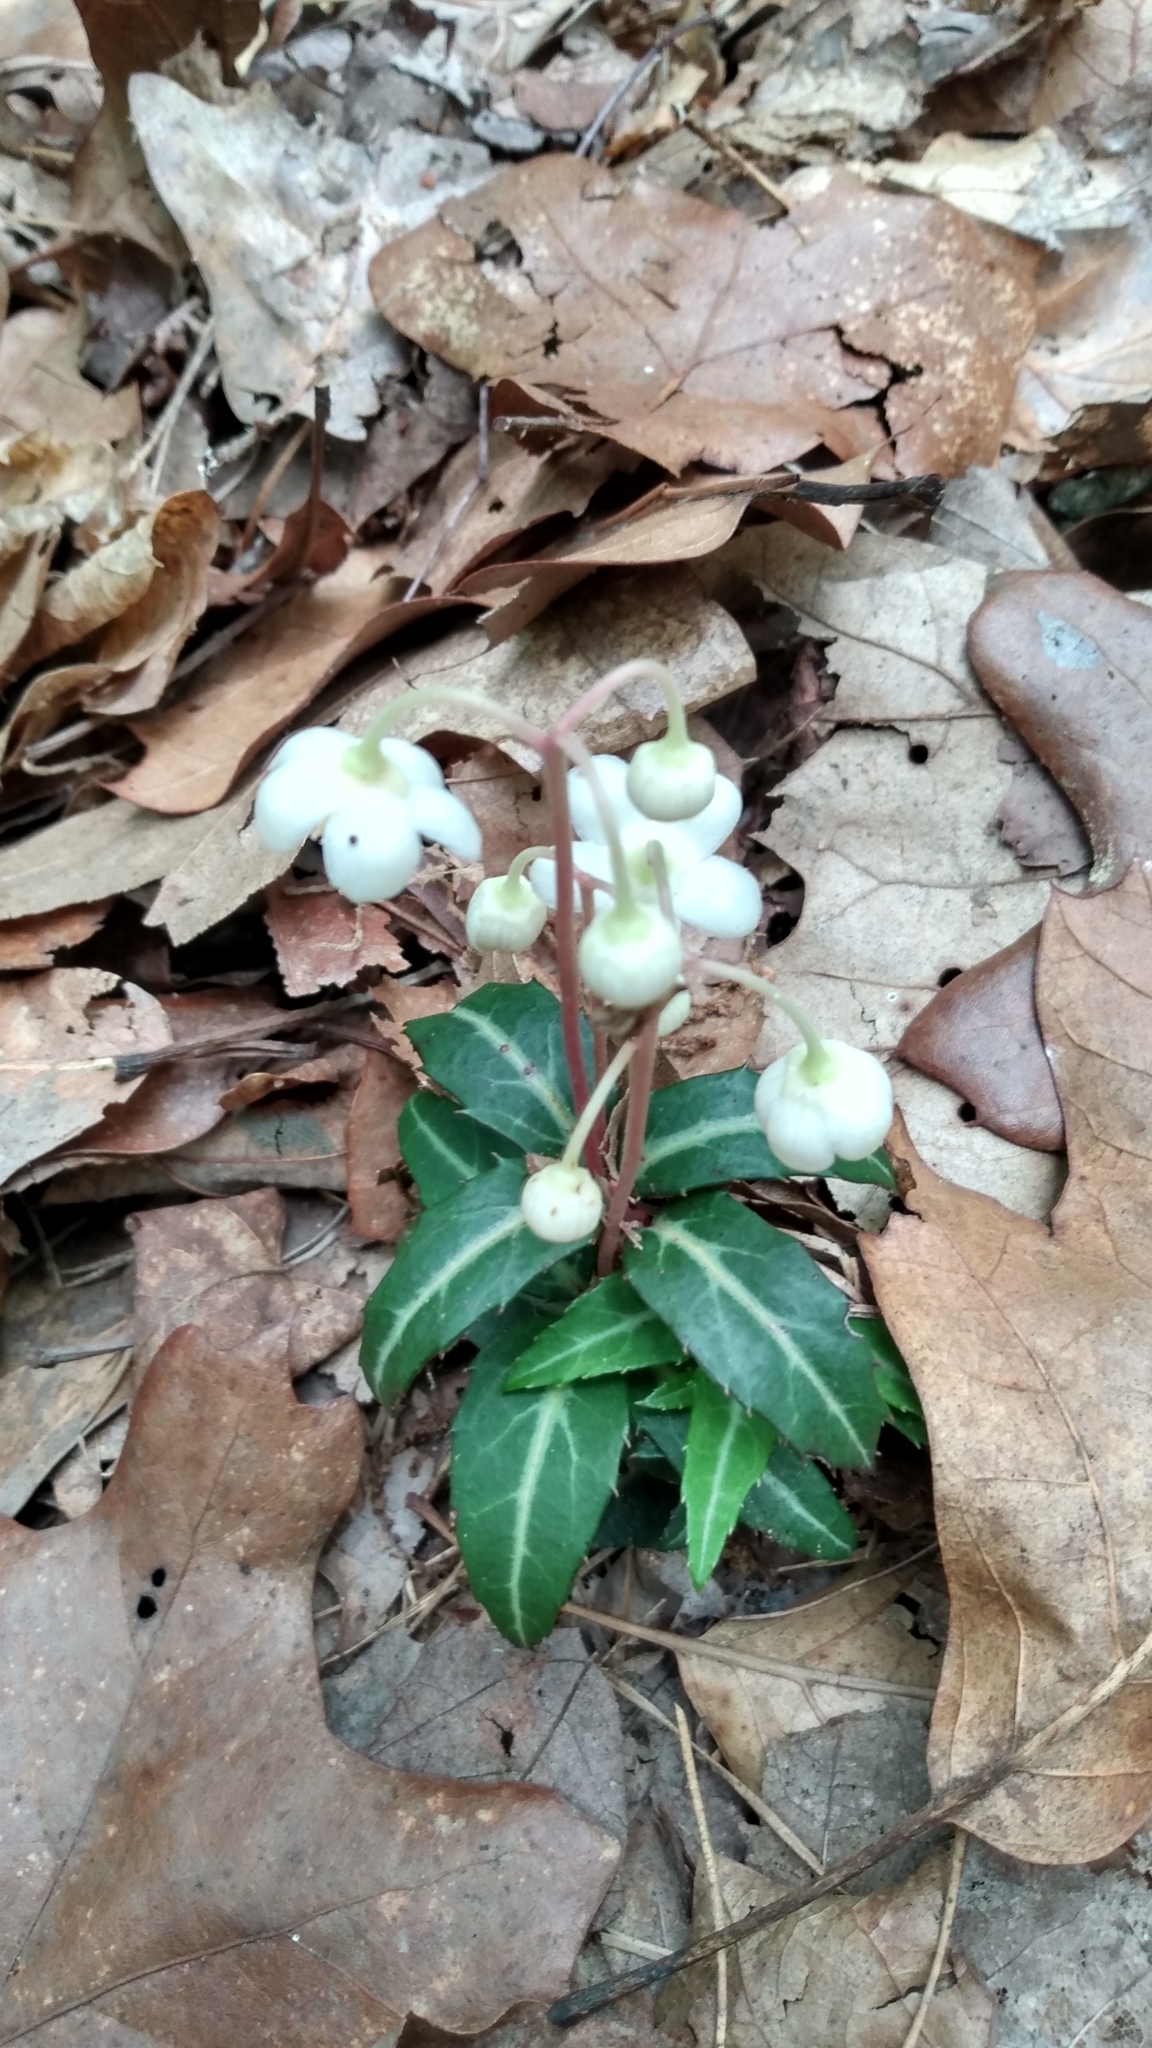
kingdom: Plantae
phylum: Tracheophyta
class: Magnoliopsida
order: Ericales
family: Ericaceae
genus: Chimaphila
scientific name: Chimaphila maculata
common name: Spotted pipsissewa
